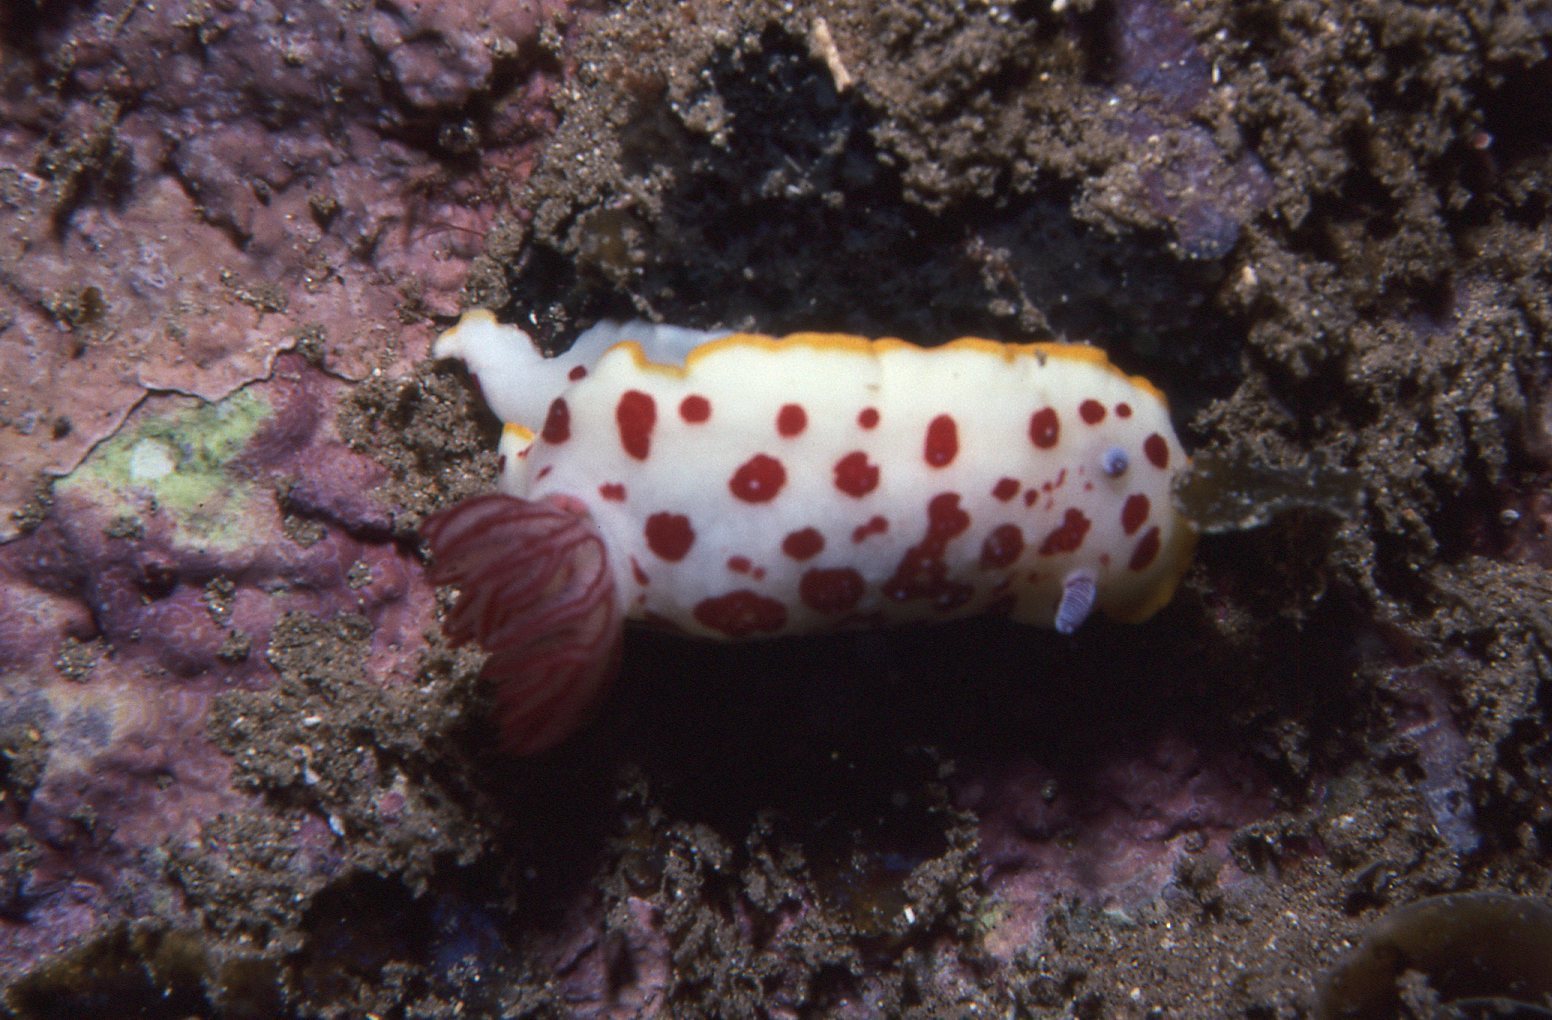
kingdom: Animalia
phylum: Mollusca
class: Gastropoda
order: Nudibranchia
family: Chromodorididae
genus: Goniobranchus
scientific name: Goniobranchus splendidus
